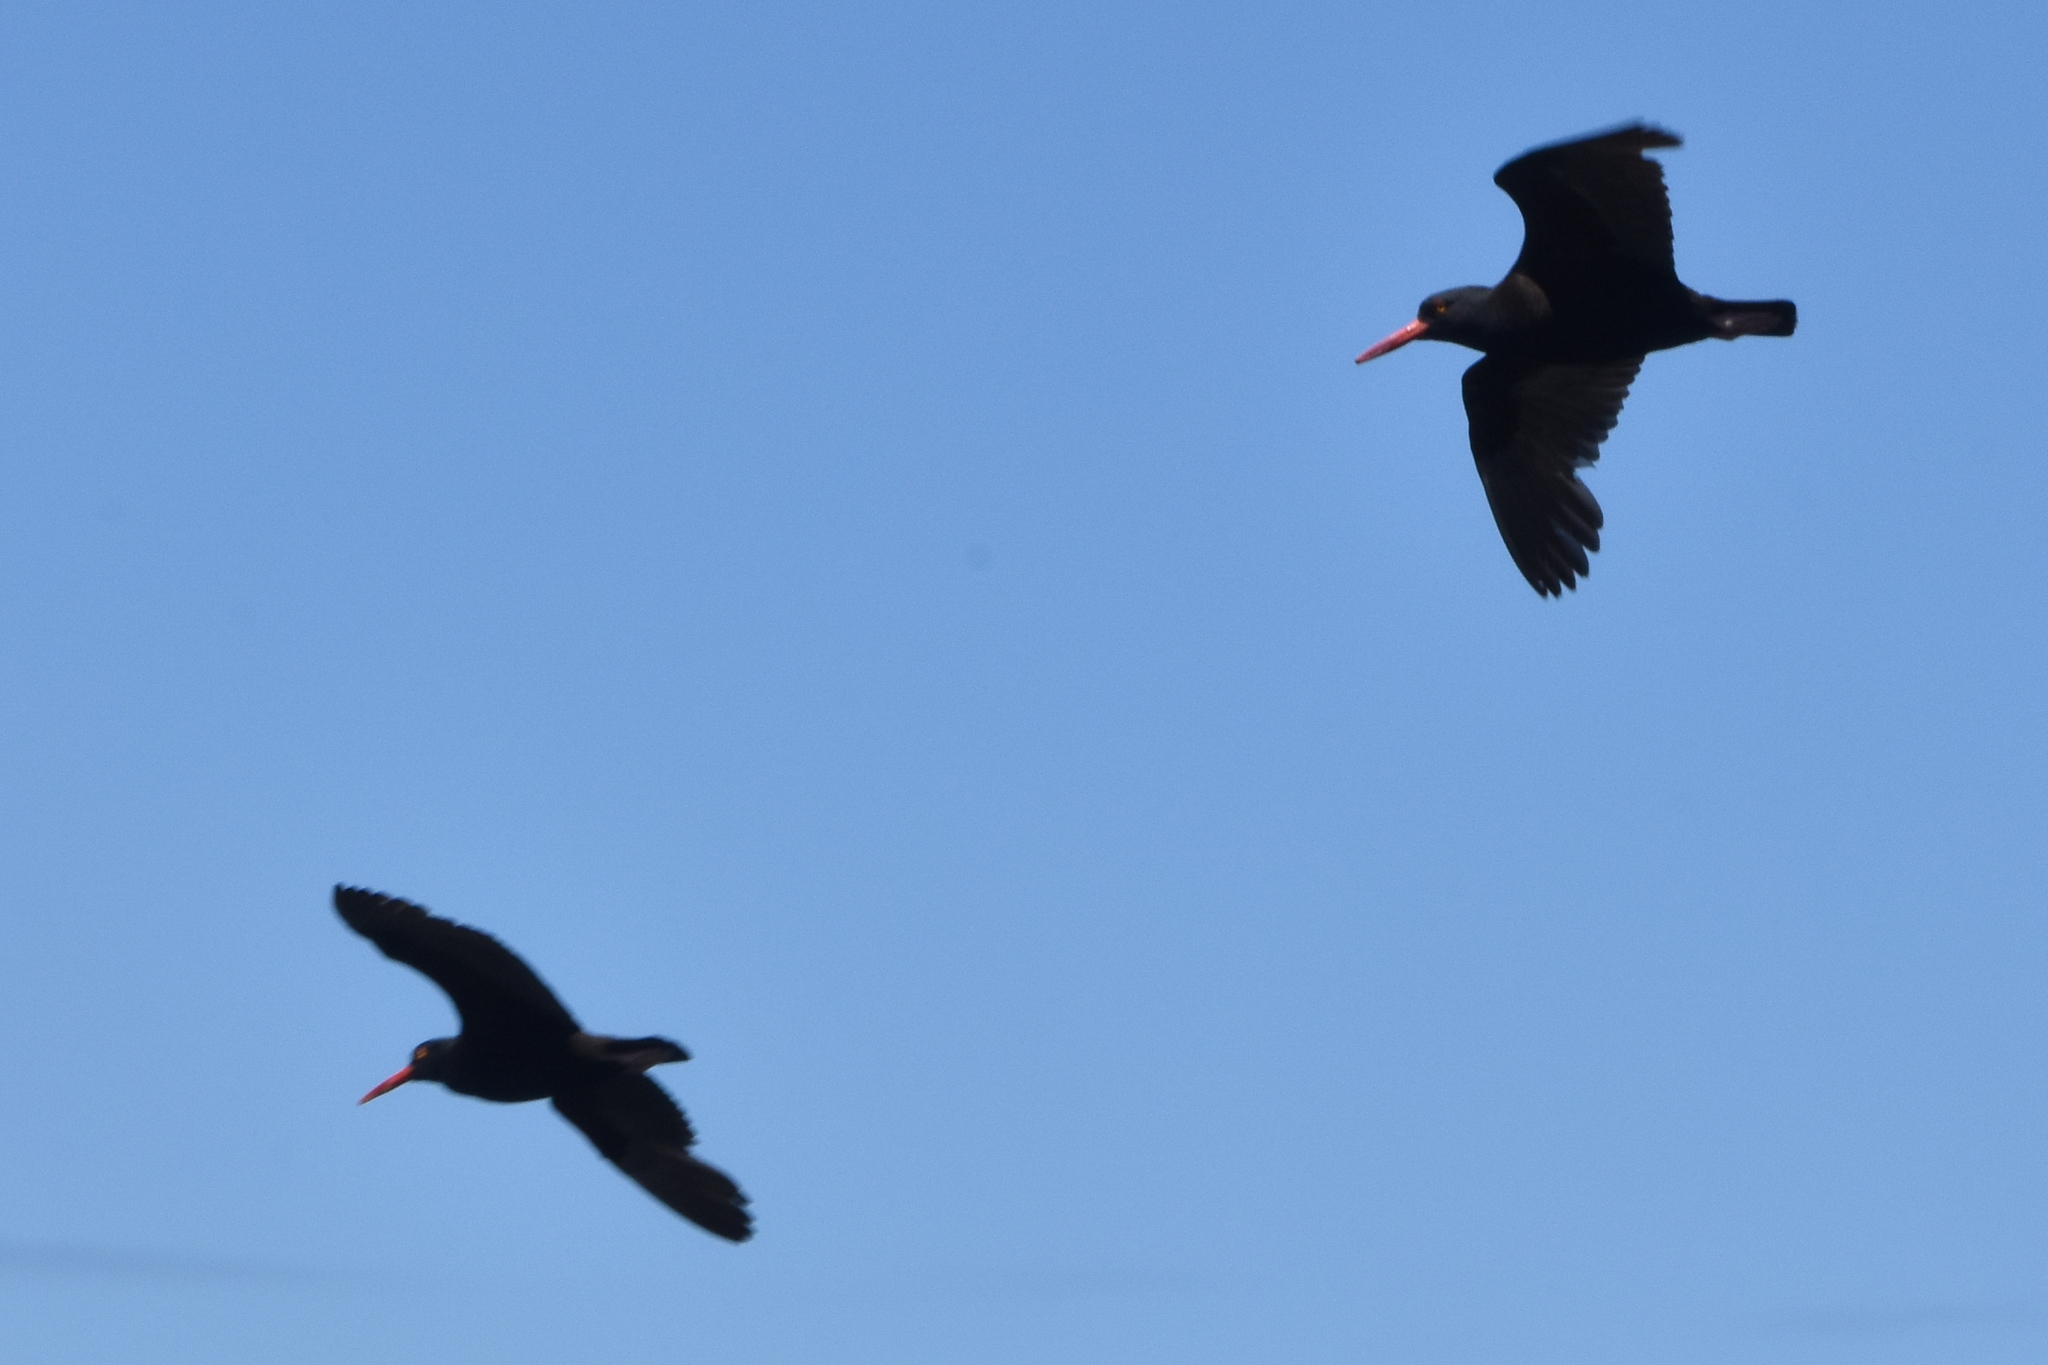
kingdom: Animalia
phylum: Chordata
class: Aves
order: Charadriiformes
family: Haematopodidae
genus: Haematopus
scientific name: Haematopus bachmani
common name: Black oystercatcher
